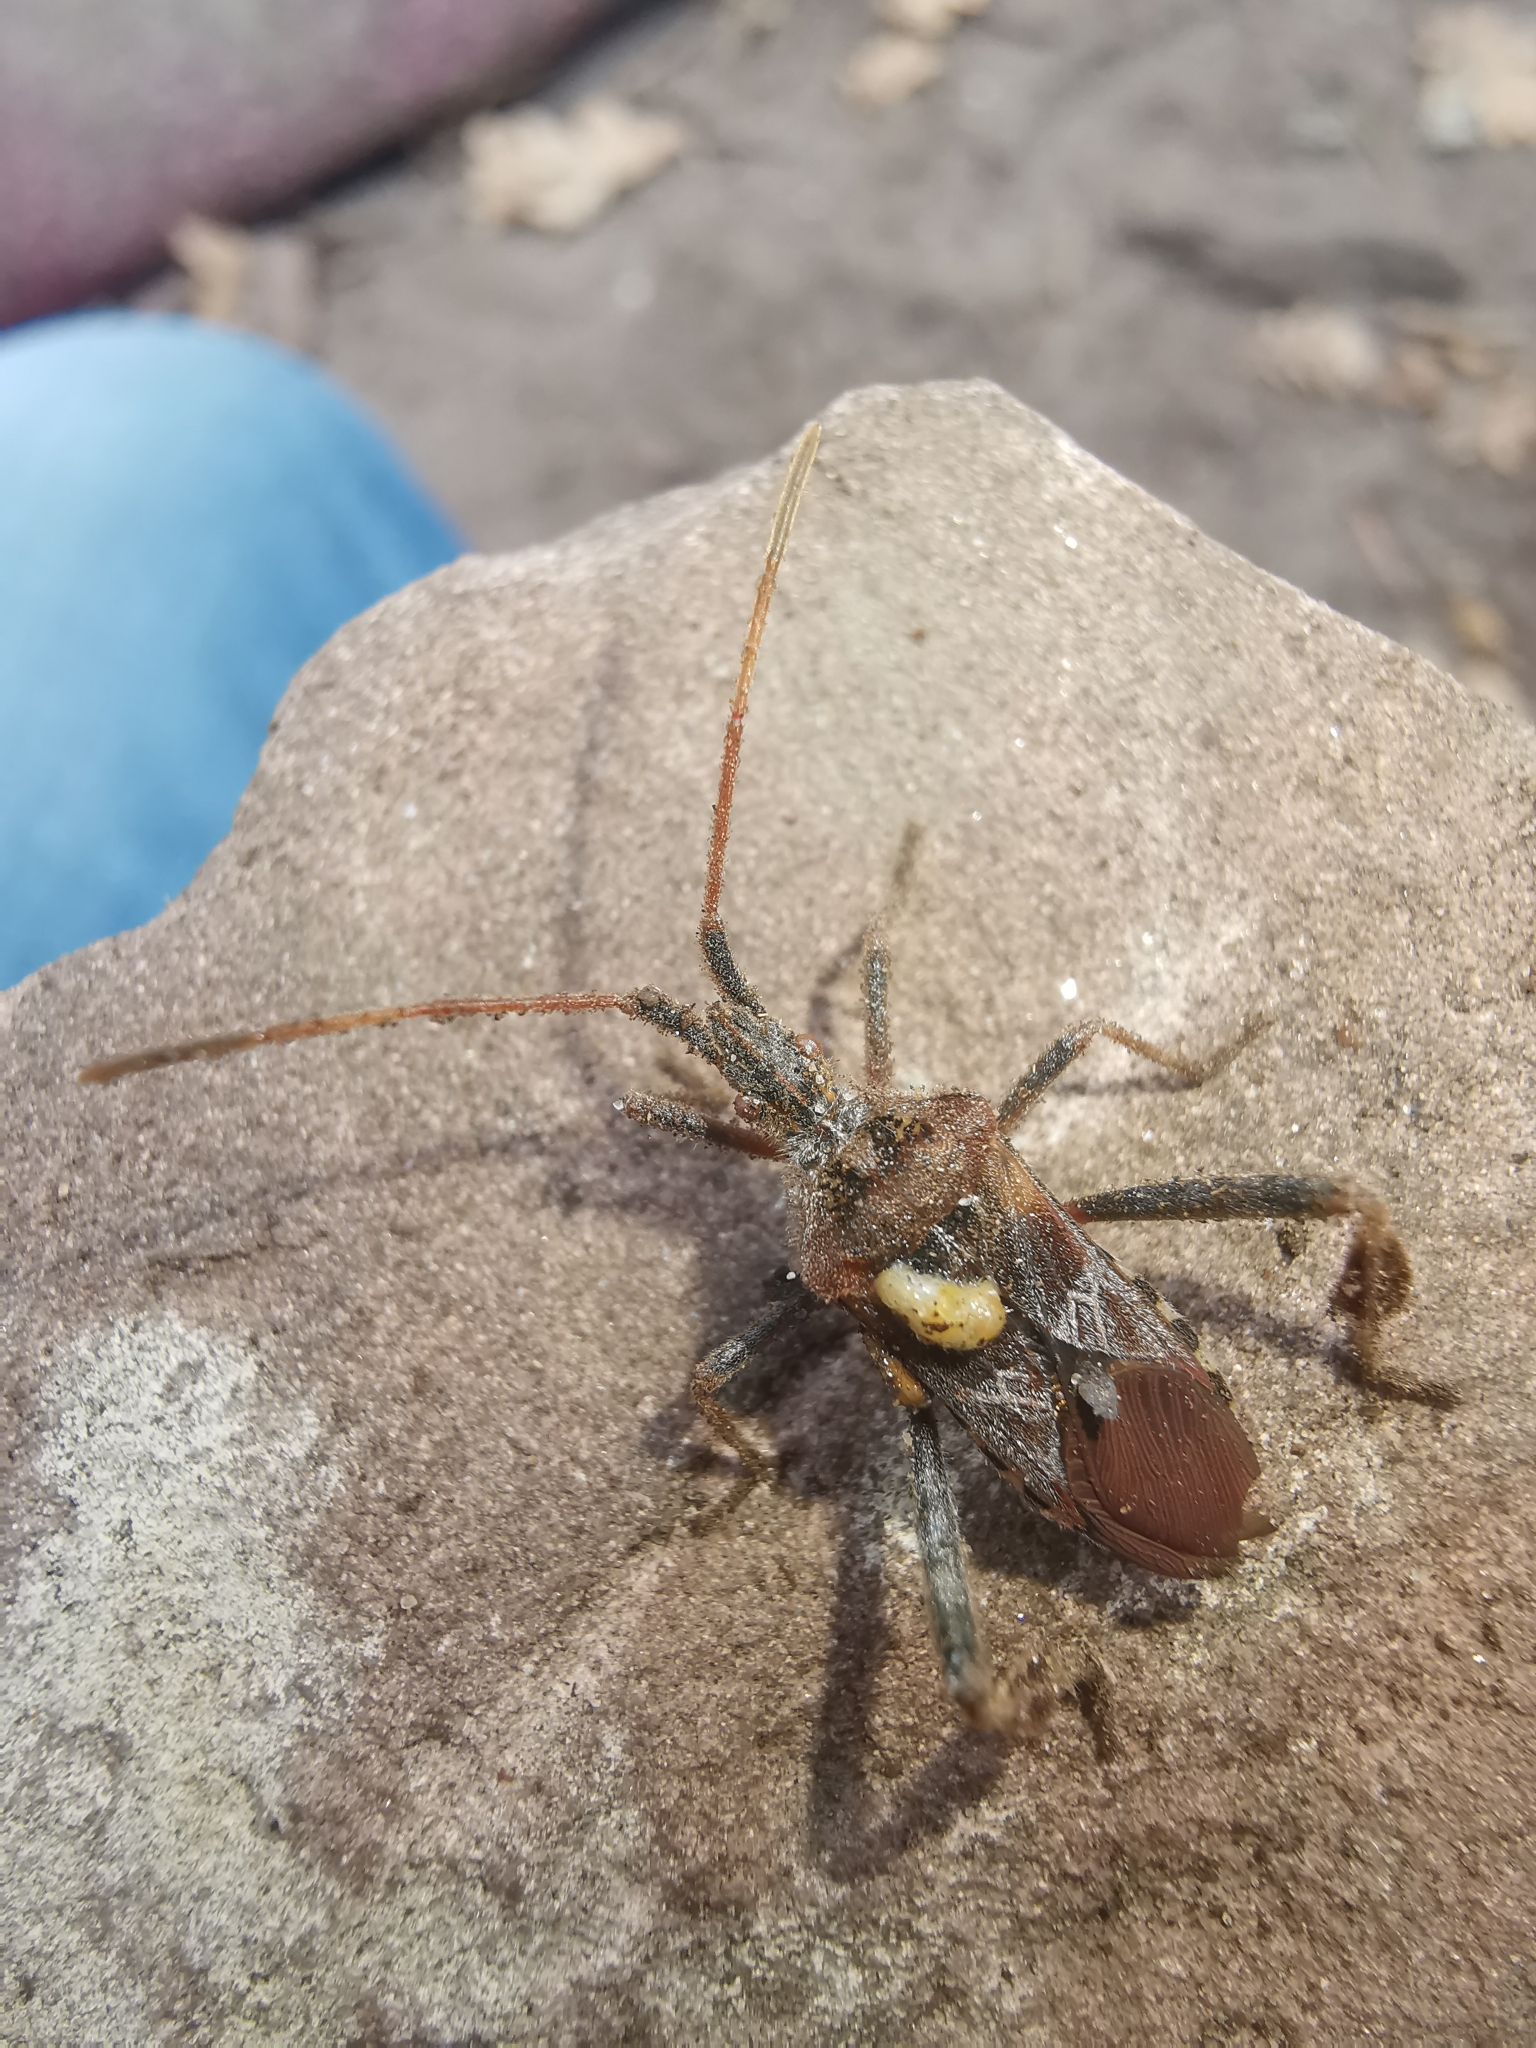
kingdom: Animalia
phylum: Arthropoda
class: Insecta
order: Hemiptera
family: Coreidae
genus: Leptoglossus
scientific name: Leptoglossus occidentalis
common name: Western conifer-seed bug
